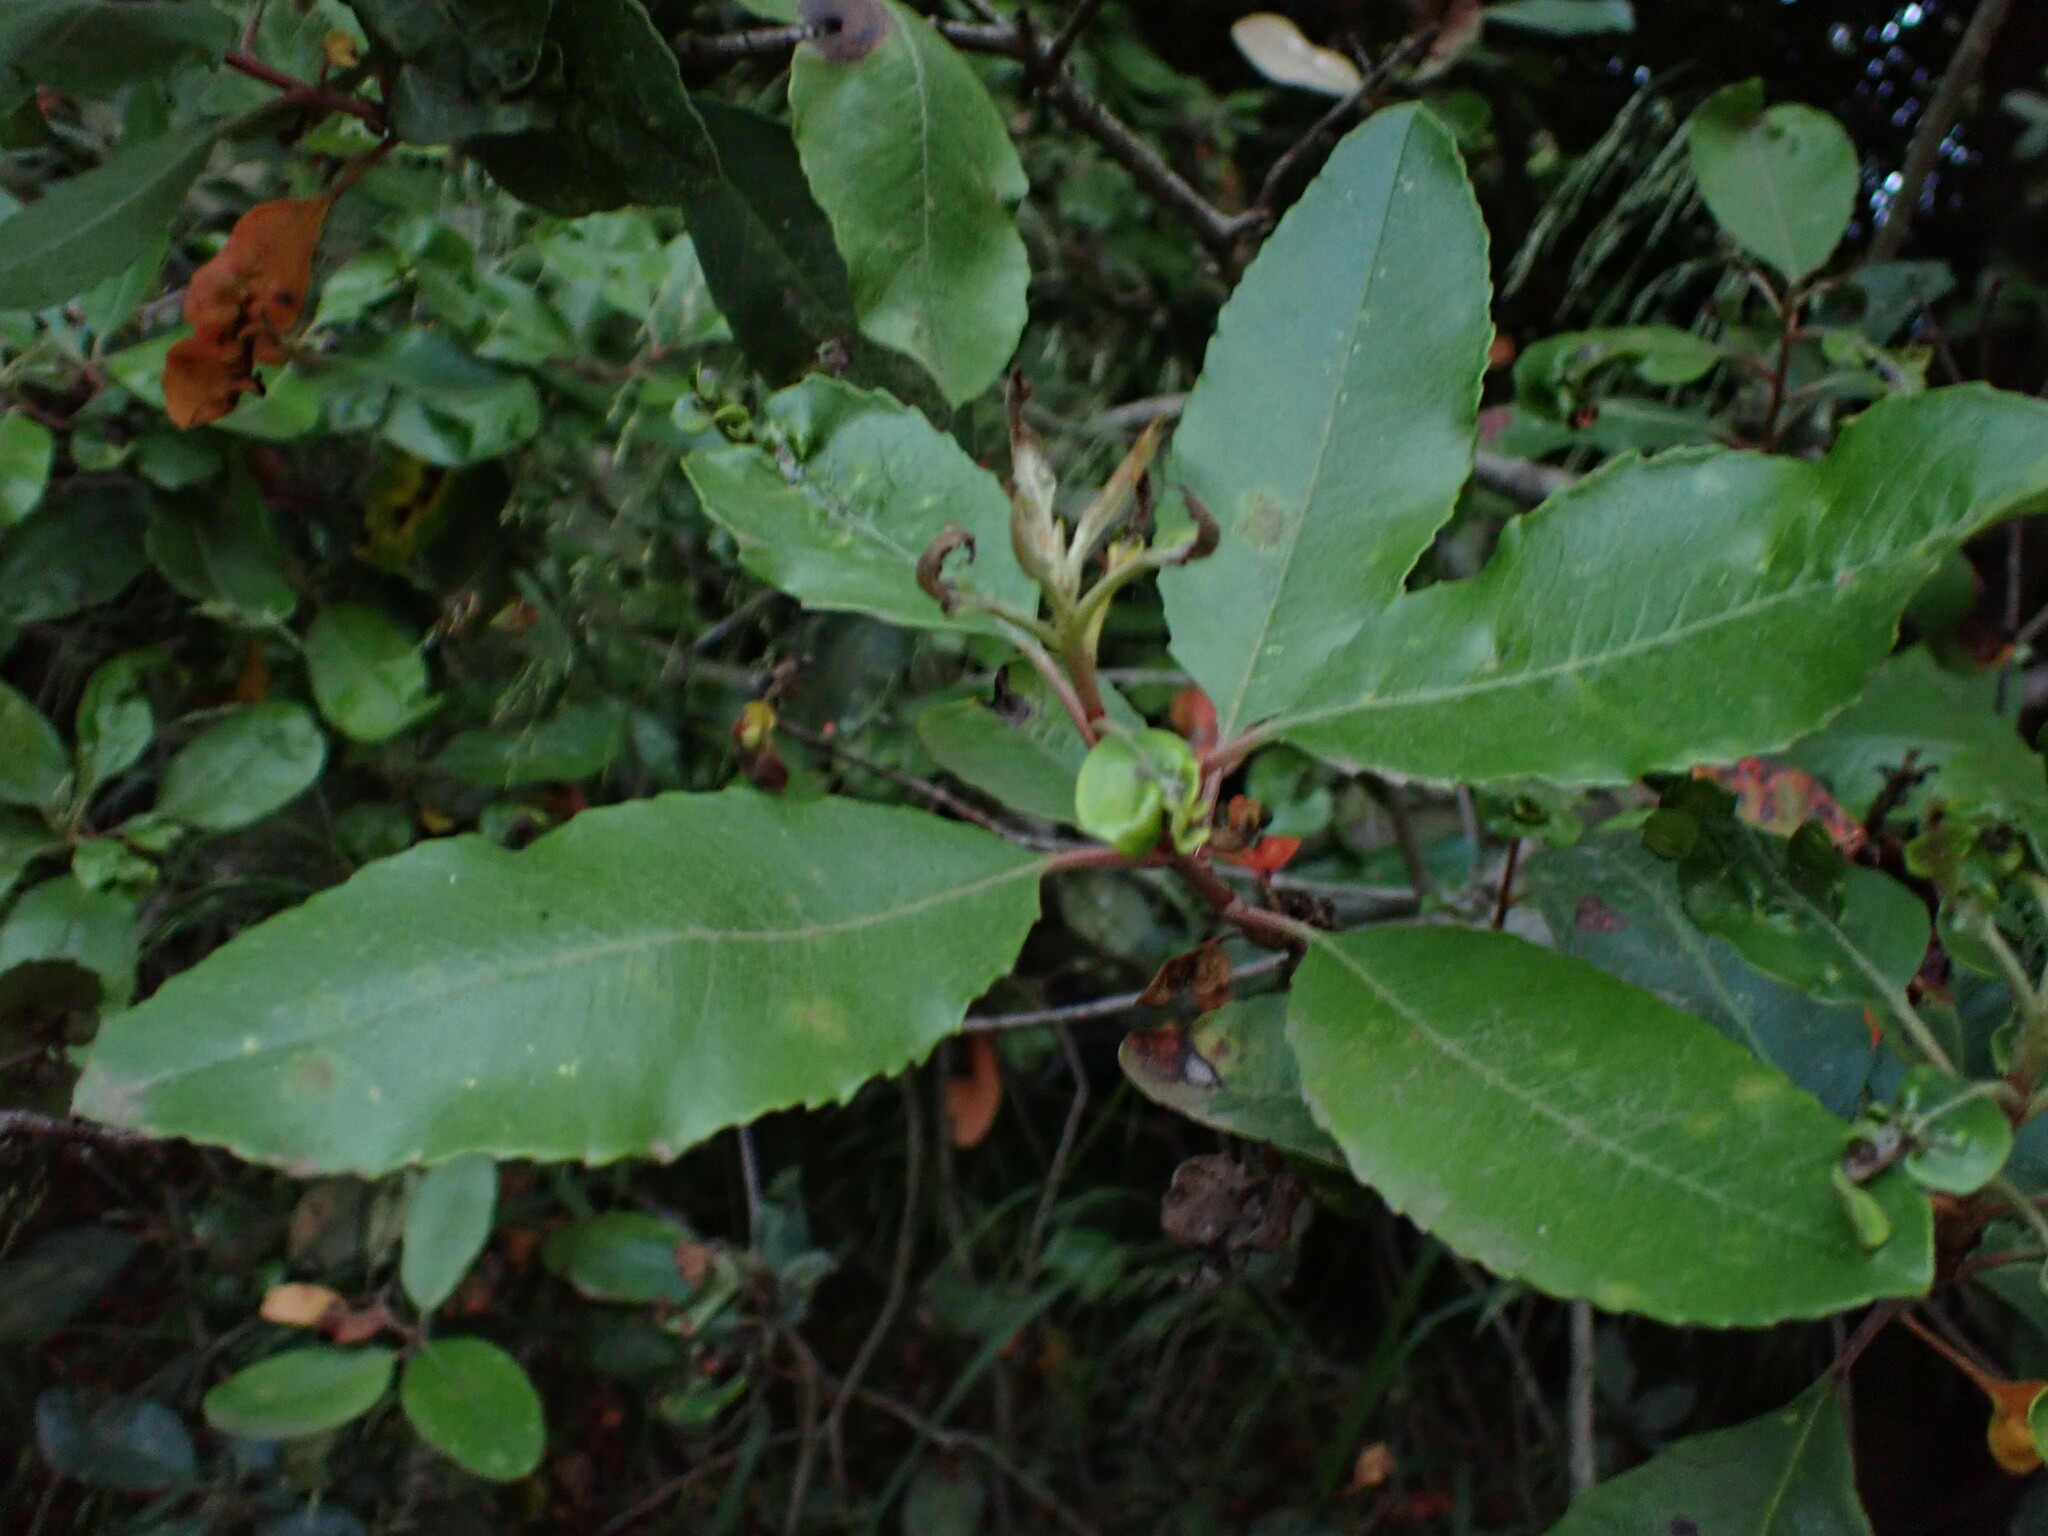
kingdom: Plantae
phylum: Tracheophyta
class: Magnoliopsida
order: Rosales
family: Rosaceae
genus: Heteromeles
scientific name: Heteromeles arbutifolia
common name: California-holly
